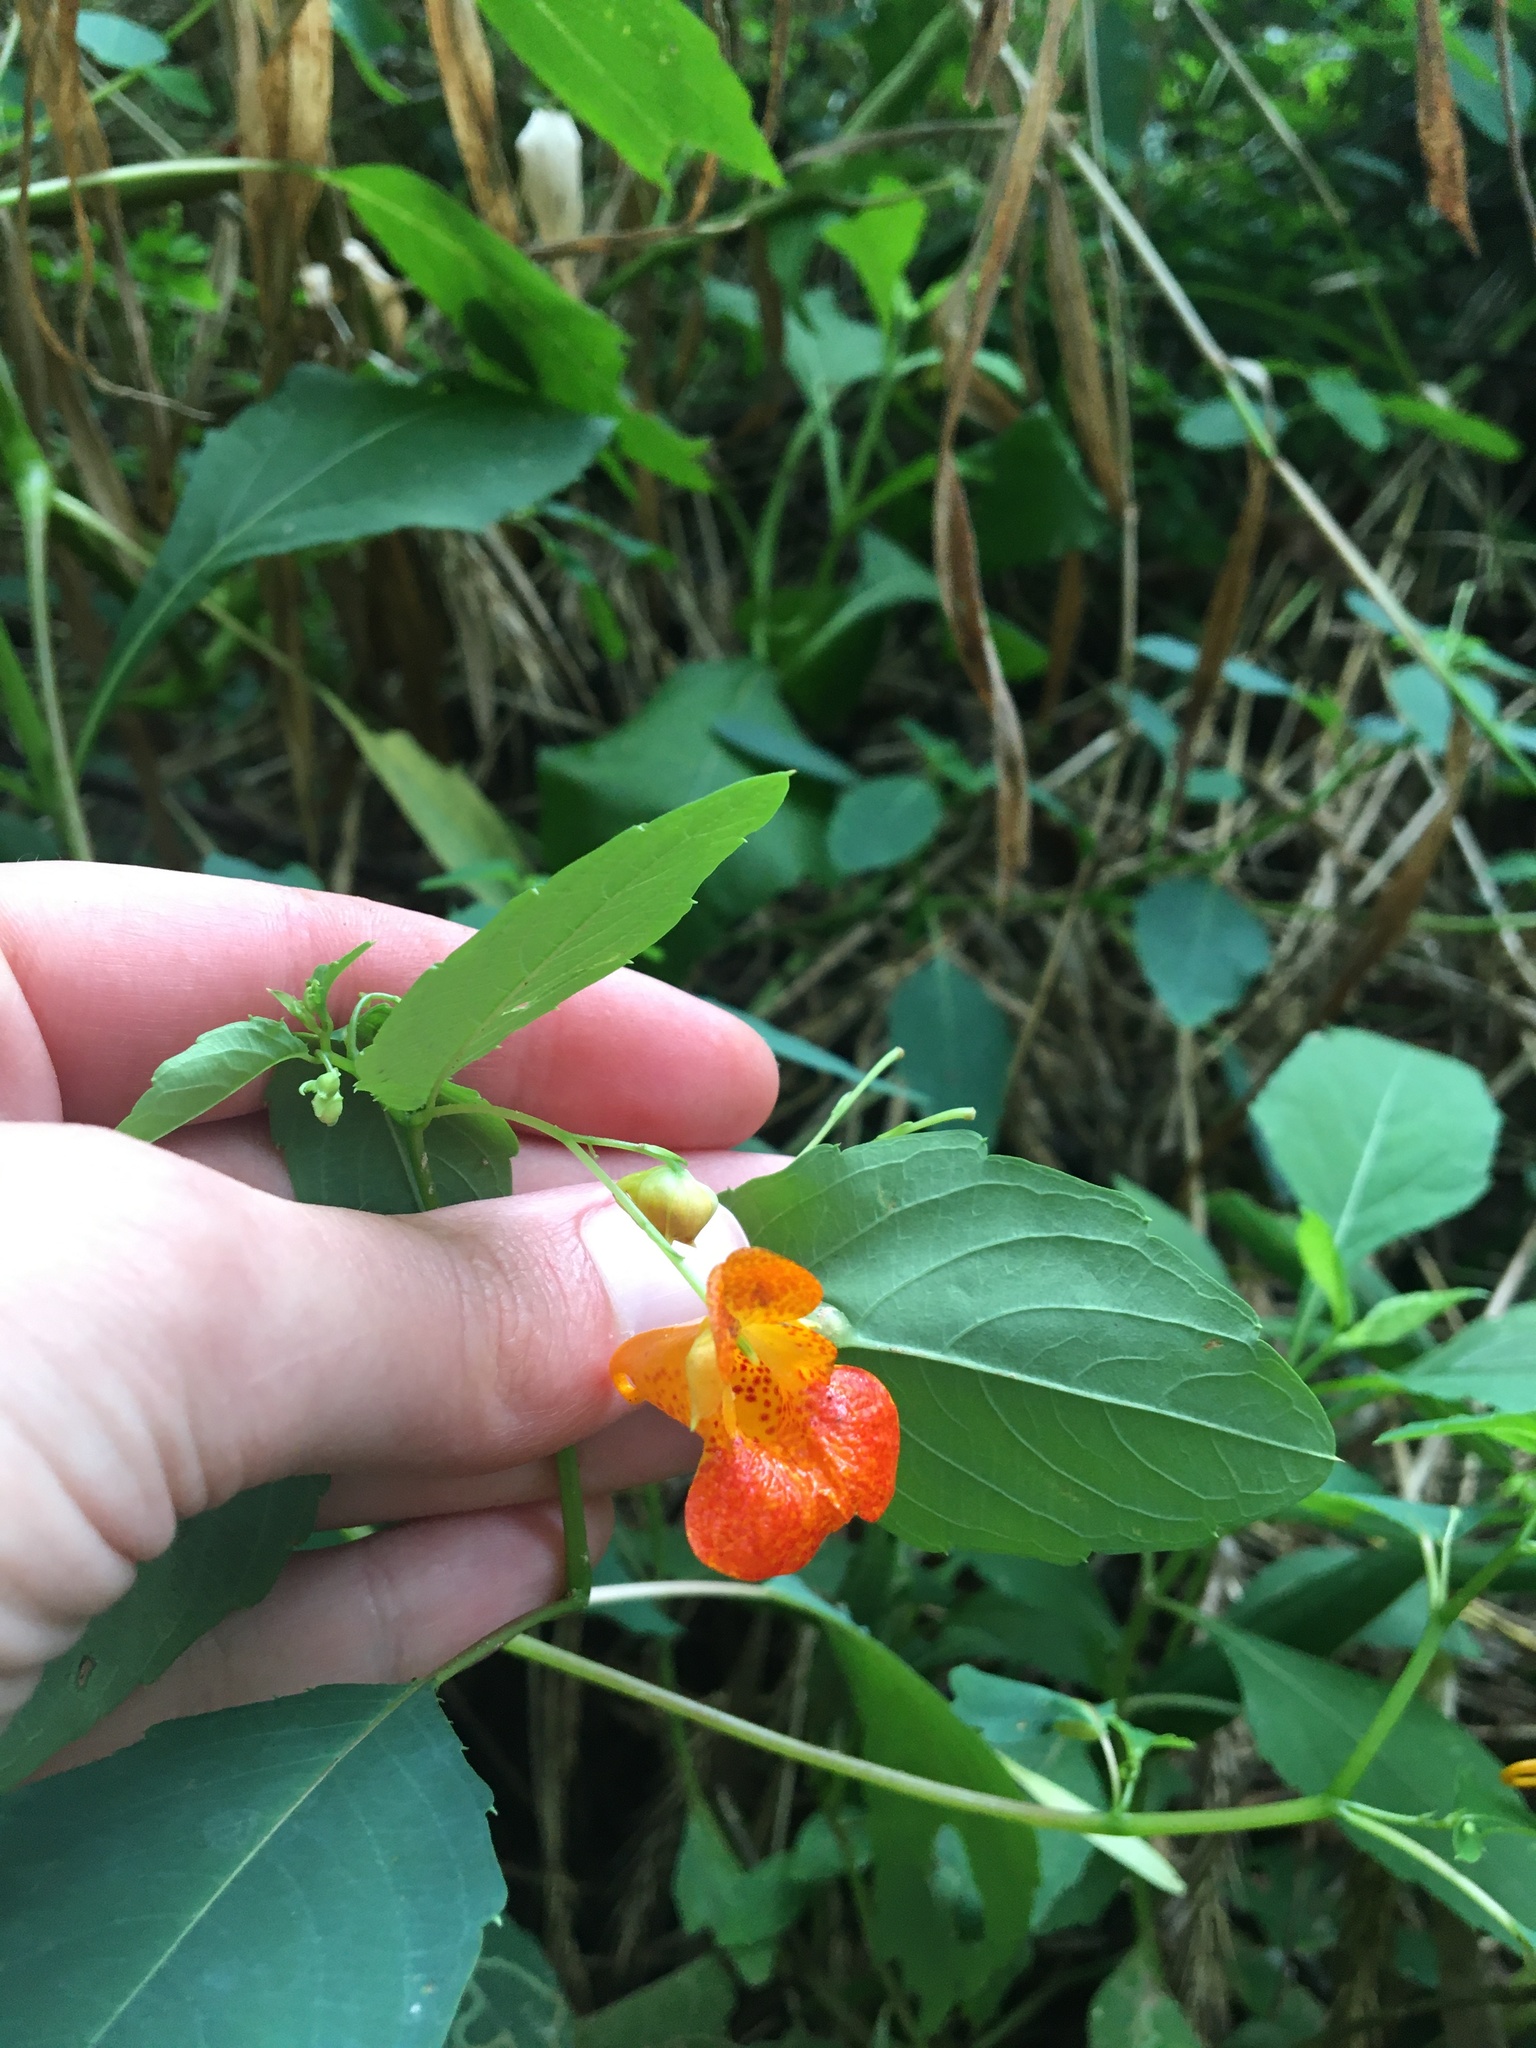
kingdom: Plantae
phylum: Tracheophyta
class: Magnoliopsida
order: Ericales
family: Balsaminaceae
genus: Impatiens
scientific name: Impatiens capensis
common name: Orange balsam
